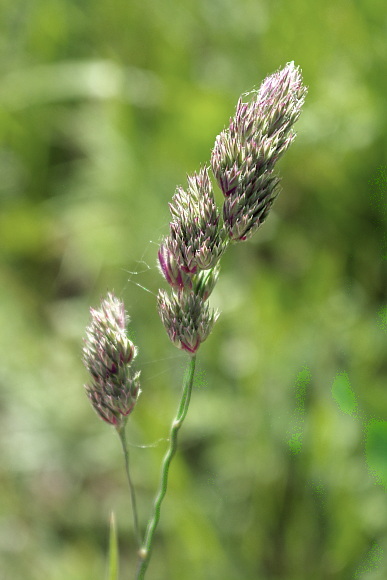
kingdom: Plantae
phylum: Tracheophyta
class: Liliopsida
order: Poales
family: Poaceae
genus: Dactylis
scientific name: Dactylis glomerata
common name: Orchardgrass
